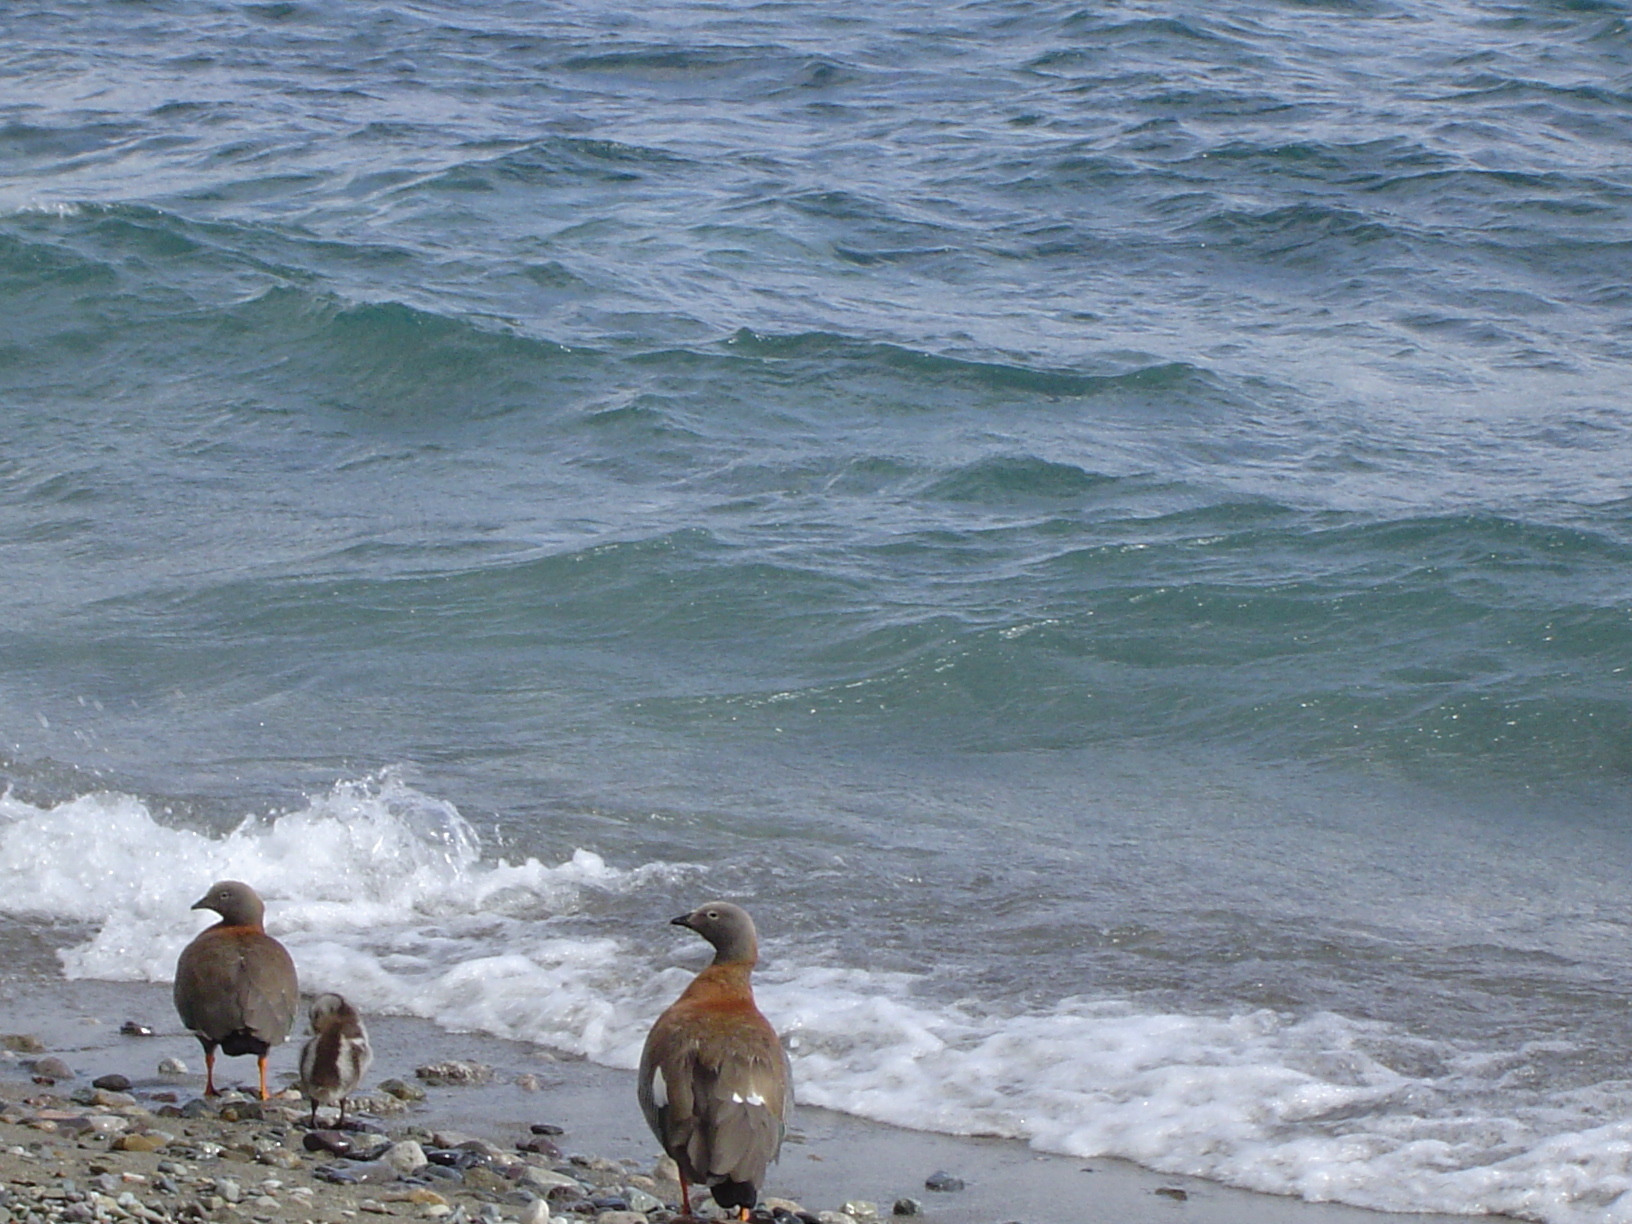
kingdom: Animalia
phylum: Chordata
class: Aves
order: Anseriformes
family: Anatidae
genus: Chloephaga
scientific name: Chloephaga poliocephala
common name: Ashy-headed goose
